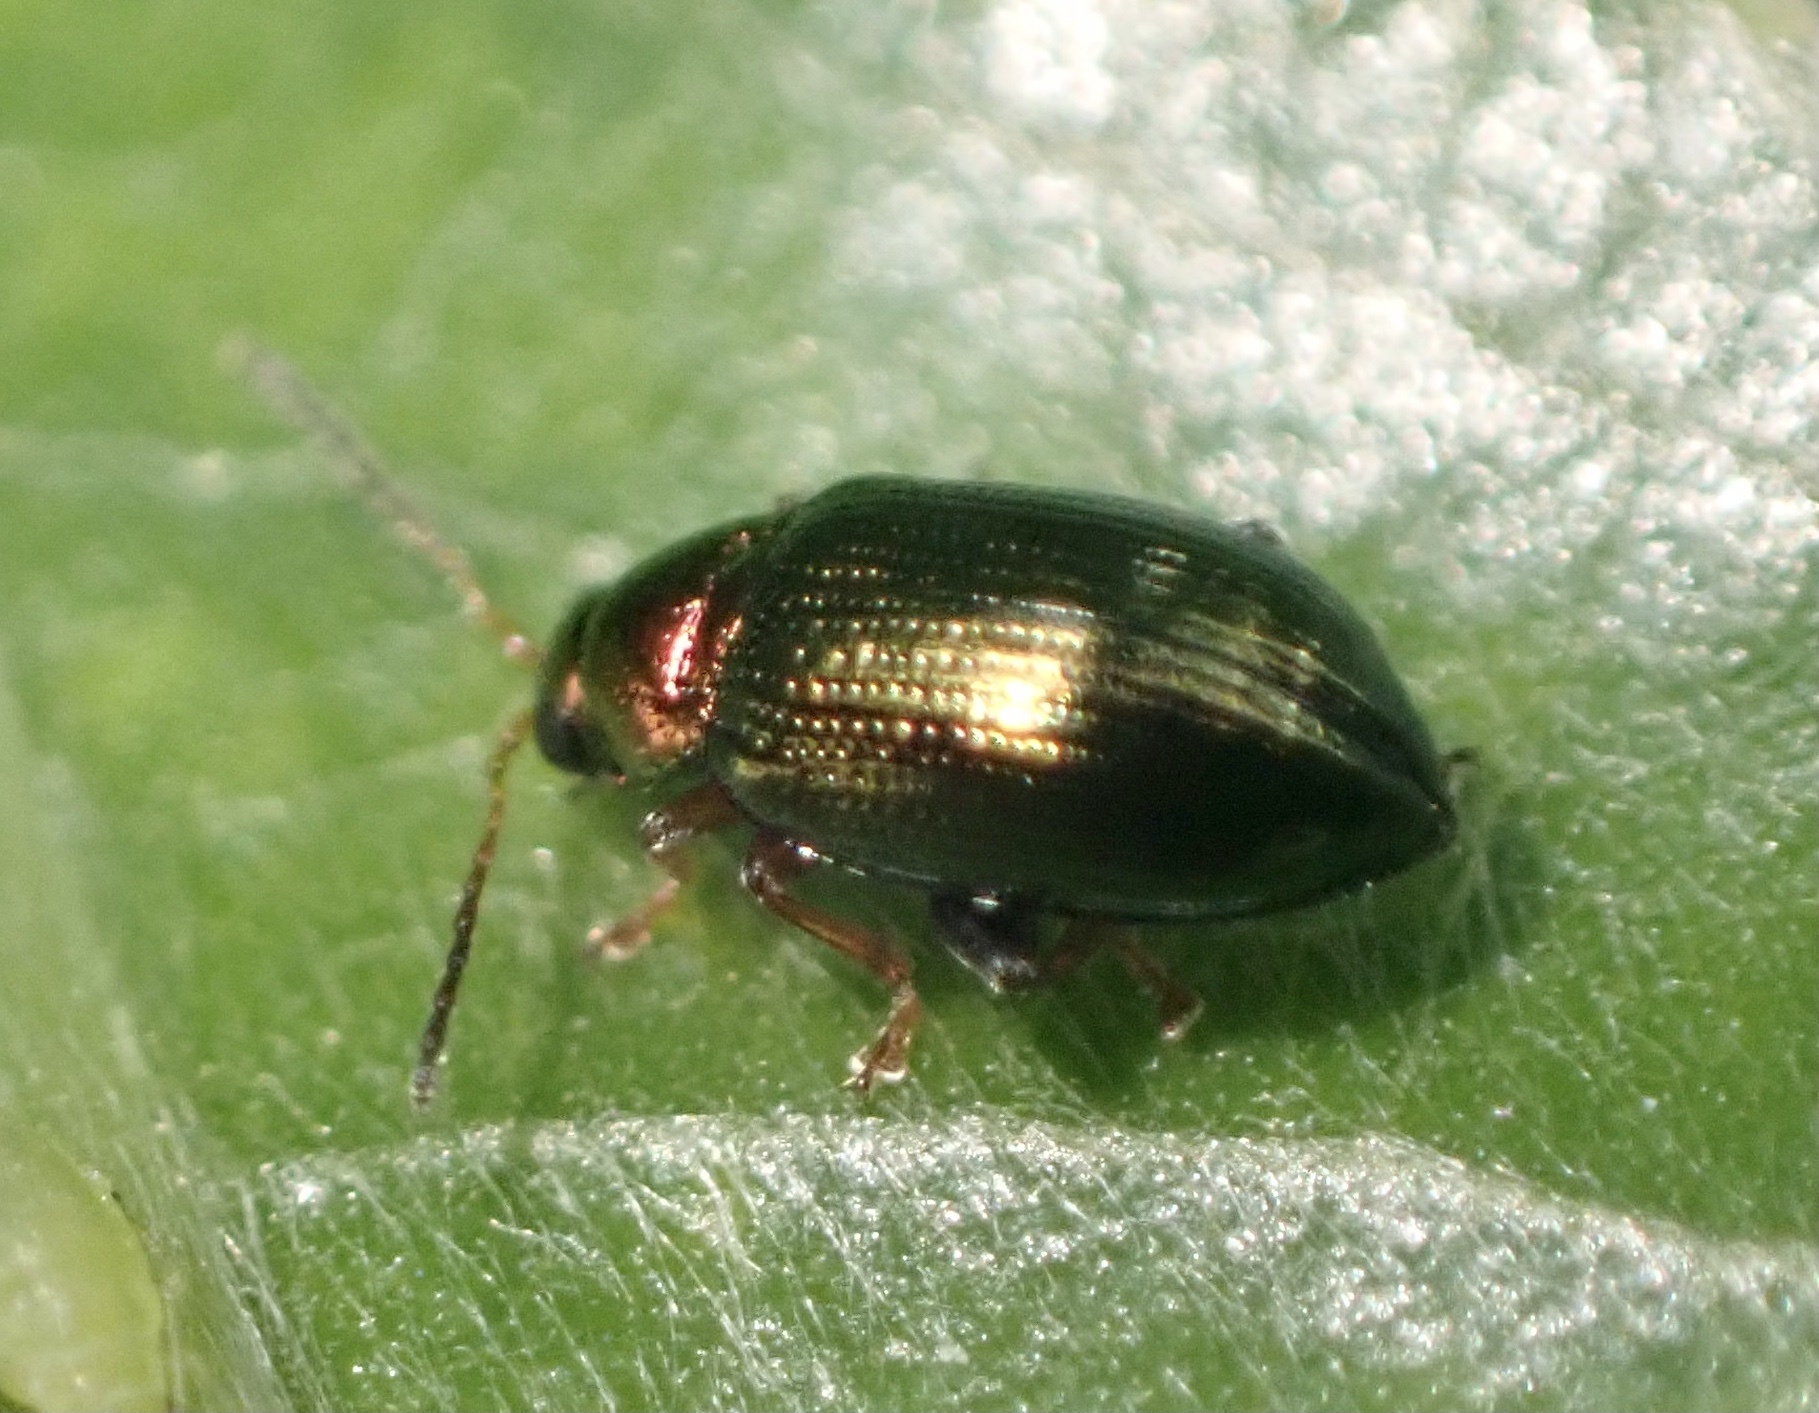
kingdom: Animalia
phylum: Arthropoda
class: Insecta
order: Coleoptera
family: Chrysomelidae
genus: Crepidodera
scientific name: Crepidodera aurata
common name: Willow flea beetle
